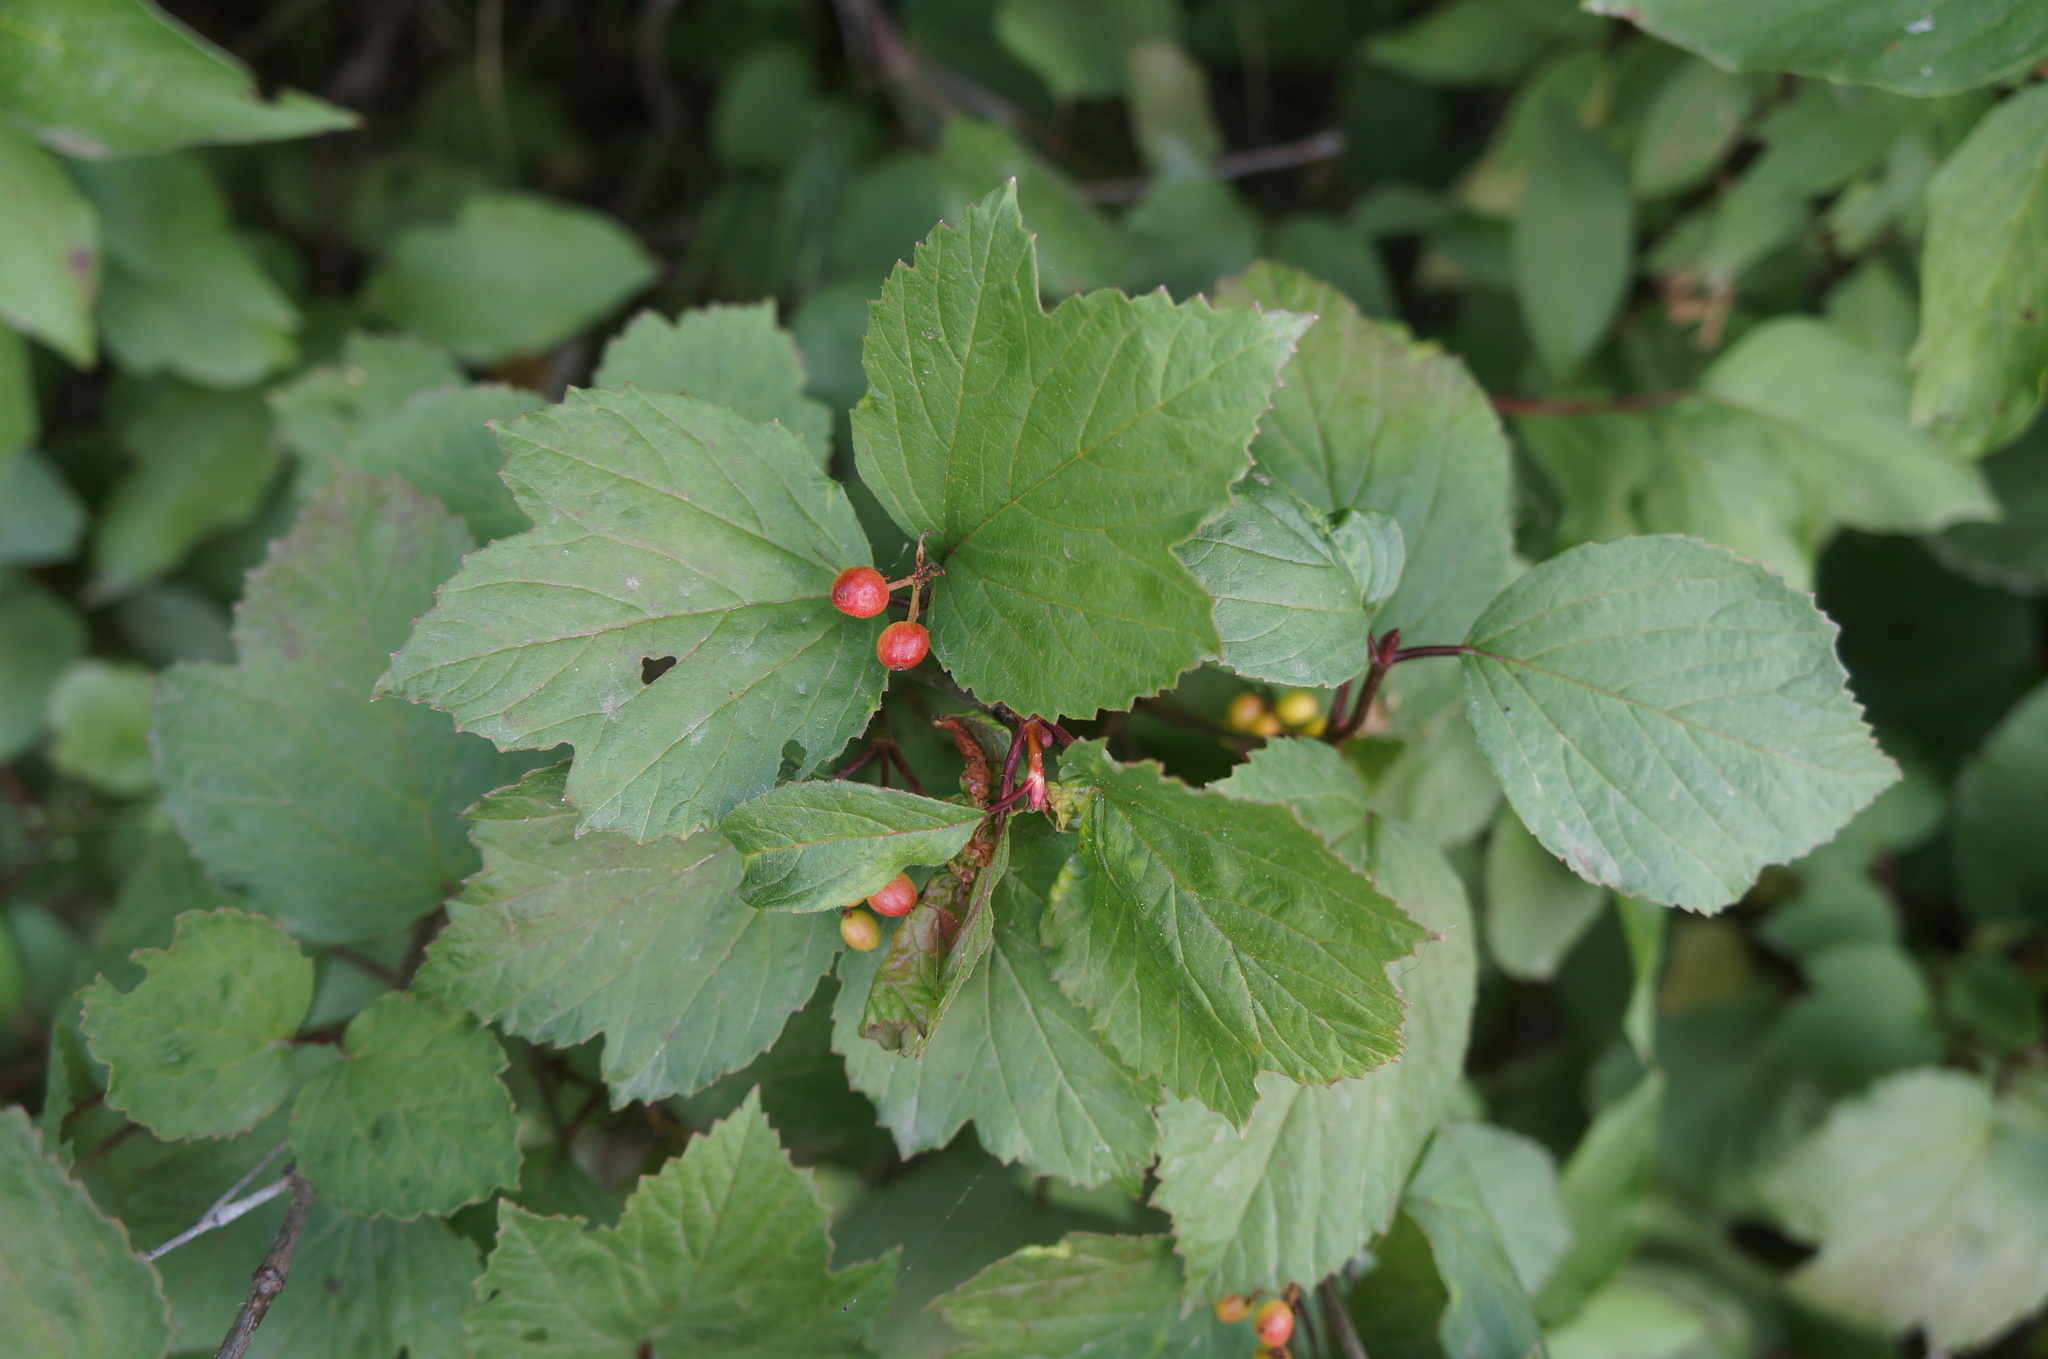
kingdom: Plantae
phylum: Tracheophyta
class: Magnoliopsida
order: Dipsacales
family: Viburnaceae
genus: Viburnum
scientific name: Viburnum edule
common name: Mooseberry
